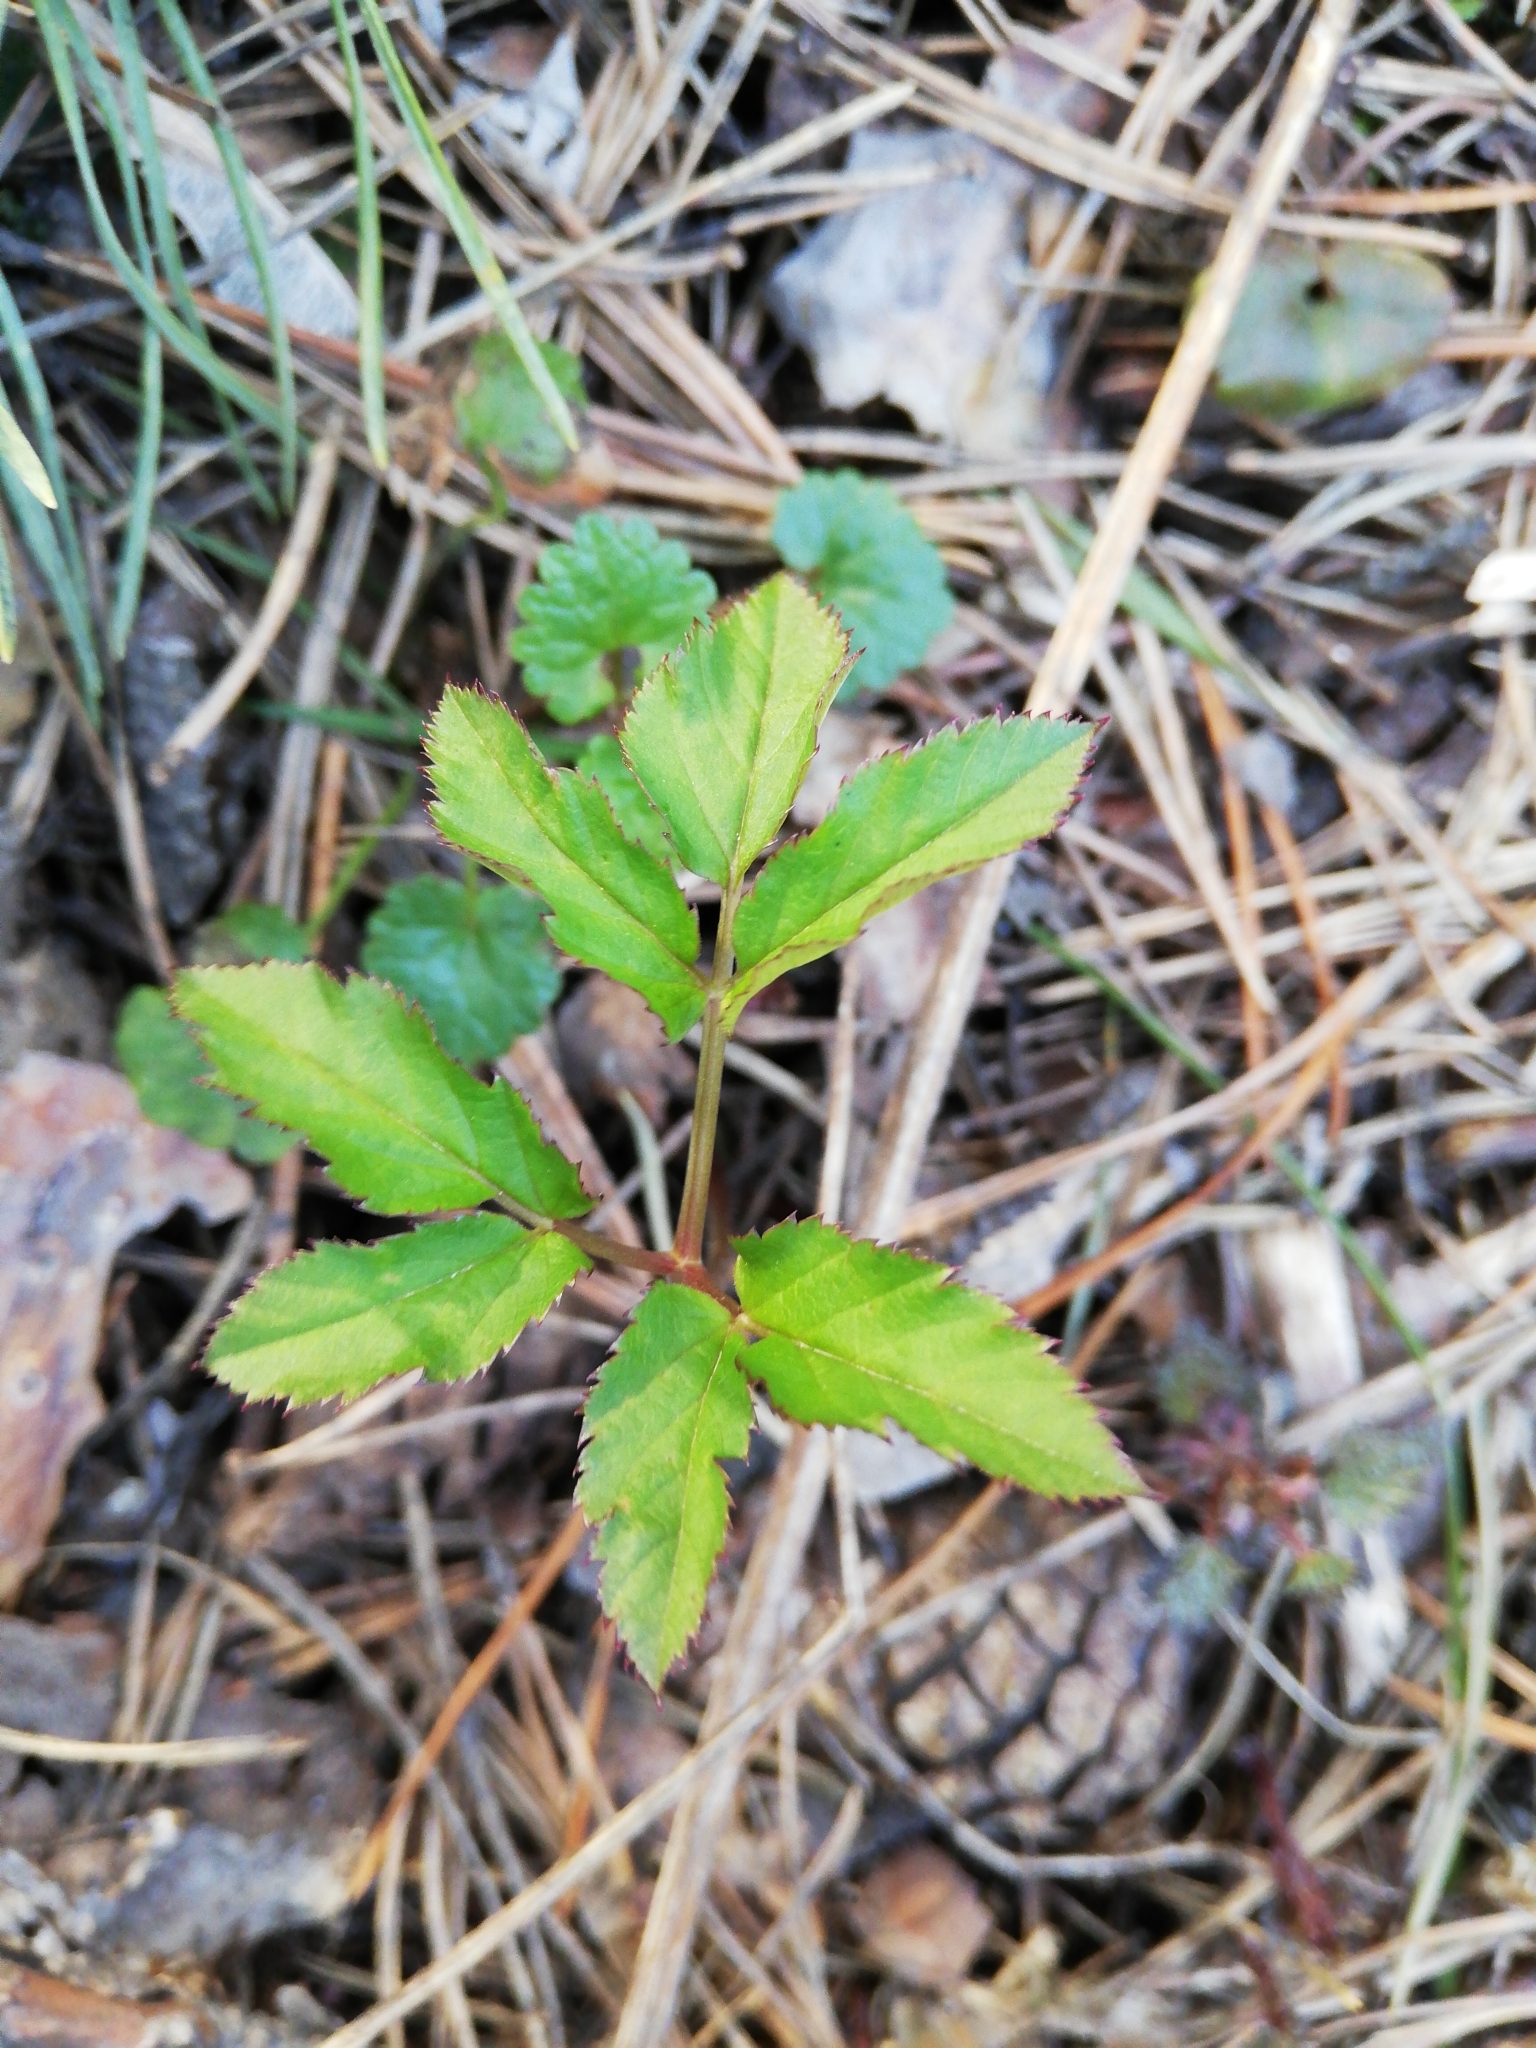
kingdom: Plantae
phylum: Tracheophyta
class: Magnoliopsida
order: Apiales
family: Apiaceae
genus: Aegopodium
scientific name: Aegopodium podagraria
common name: Ground-elder
